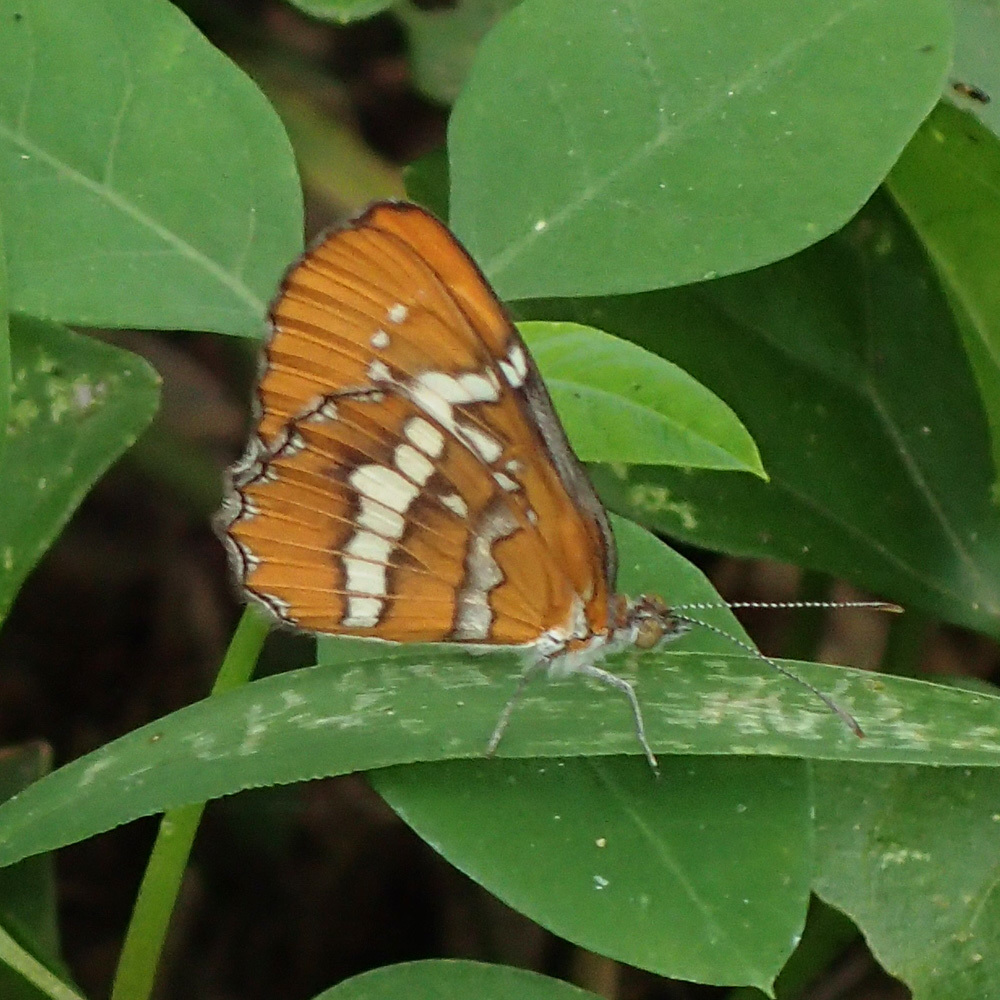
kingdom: Animalia
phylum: Arthropoda
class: Insecta
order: Lepidoptera
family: Nymphalidae
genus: Mestra
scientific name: Mestra dorcas
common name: Jamaican mestra
